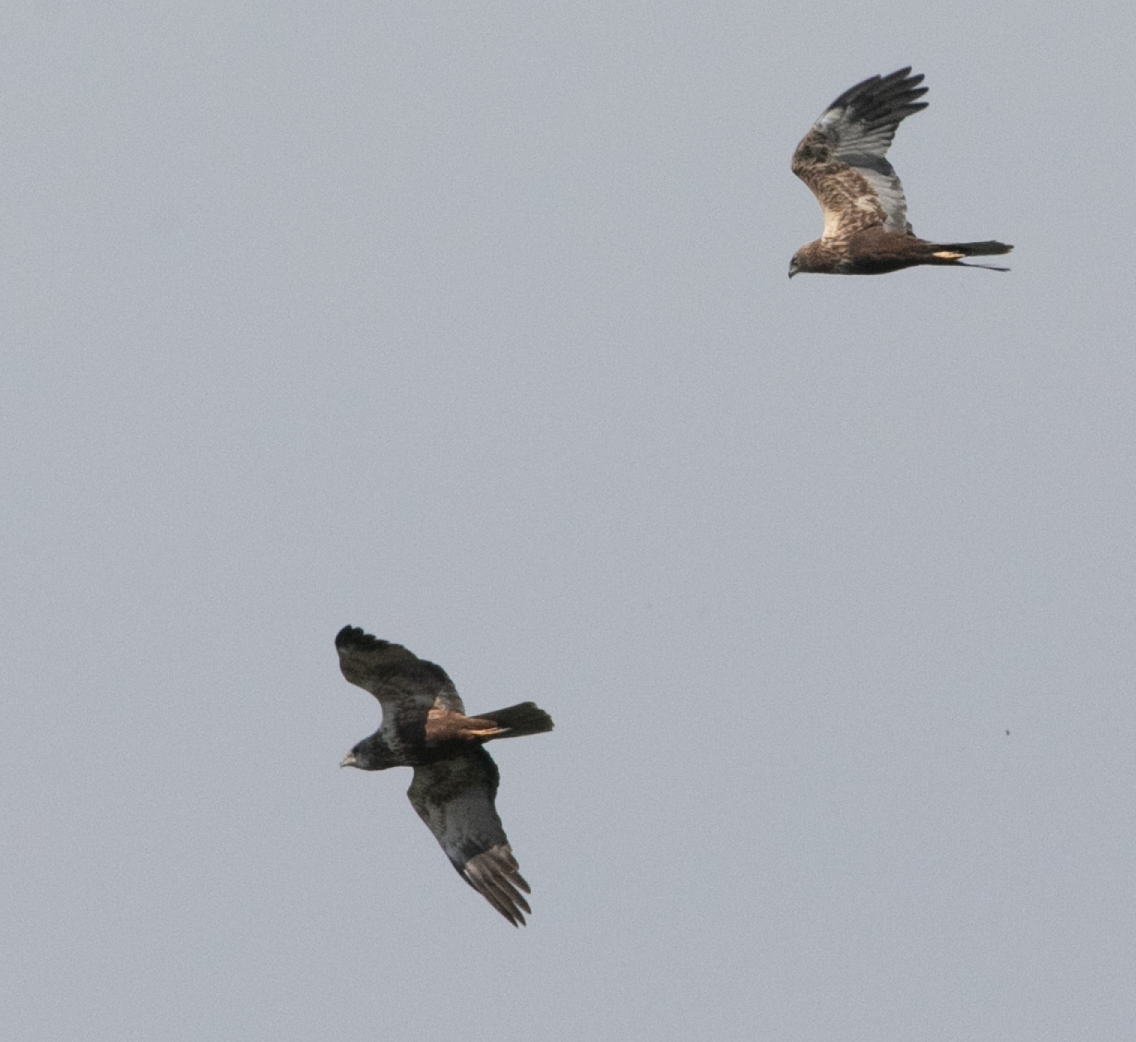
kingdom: Animalia
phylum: Chordata
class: Aves
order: Accipitriformes
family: Accipitridae
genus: Circus
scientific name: Circus aeruginosus
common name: Western marsh harrier
